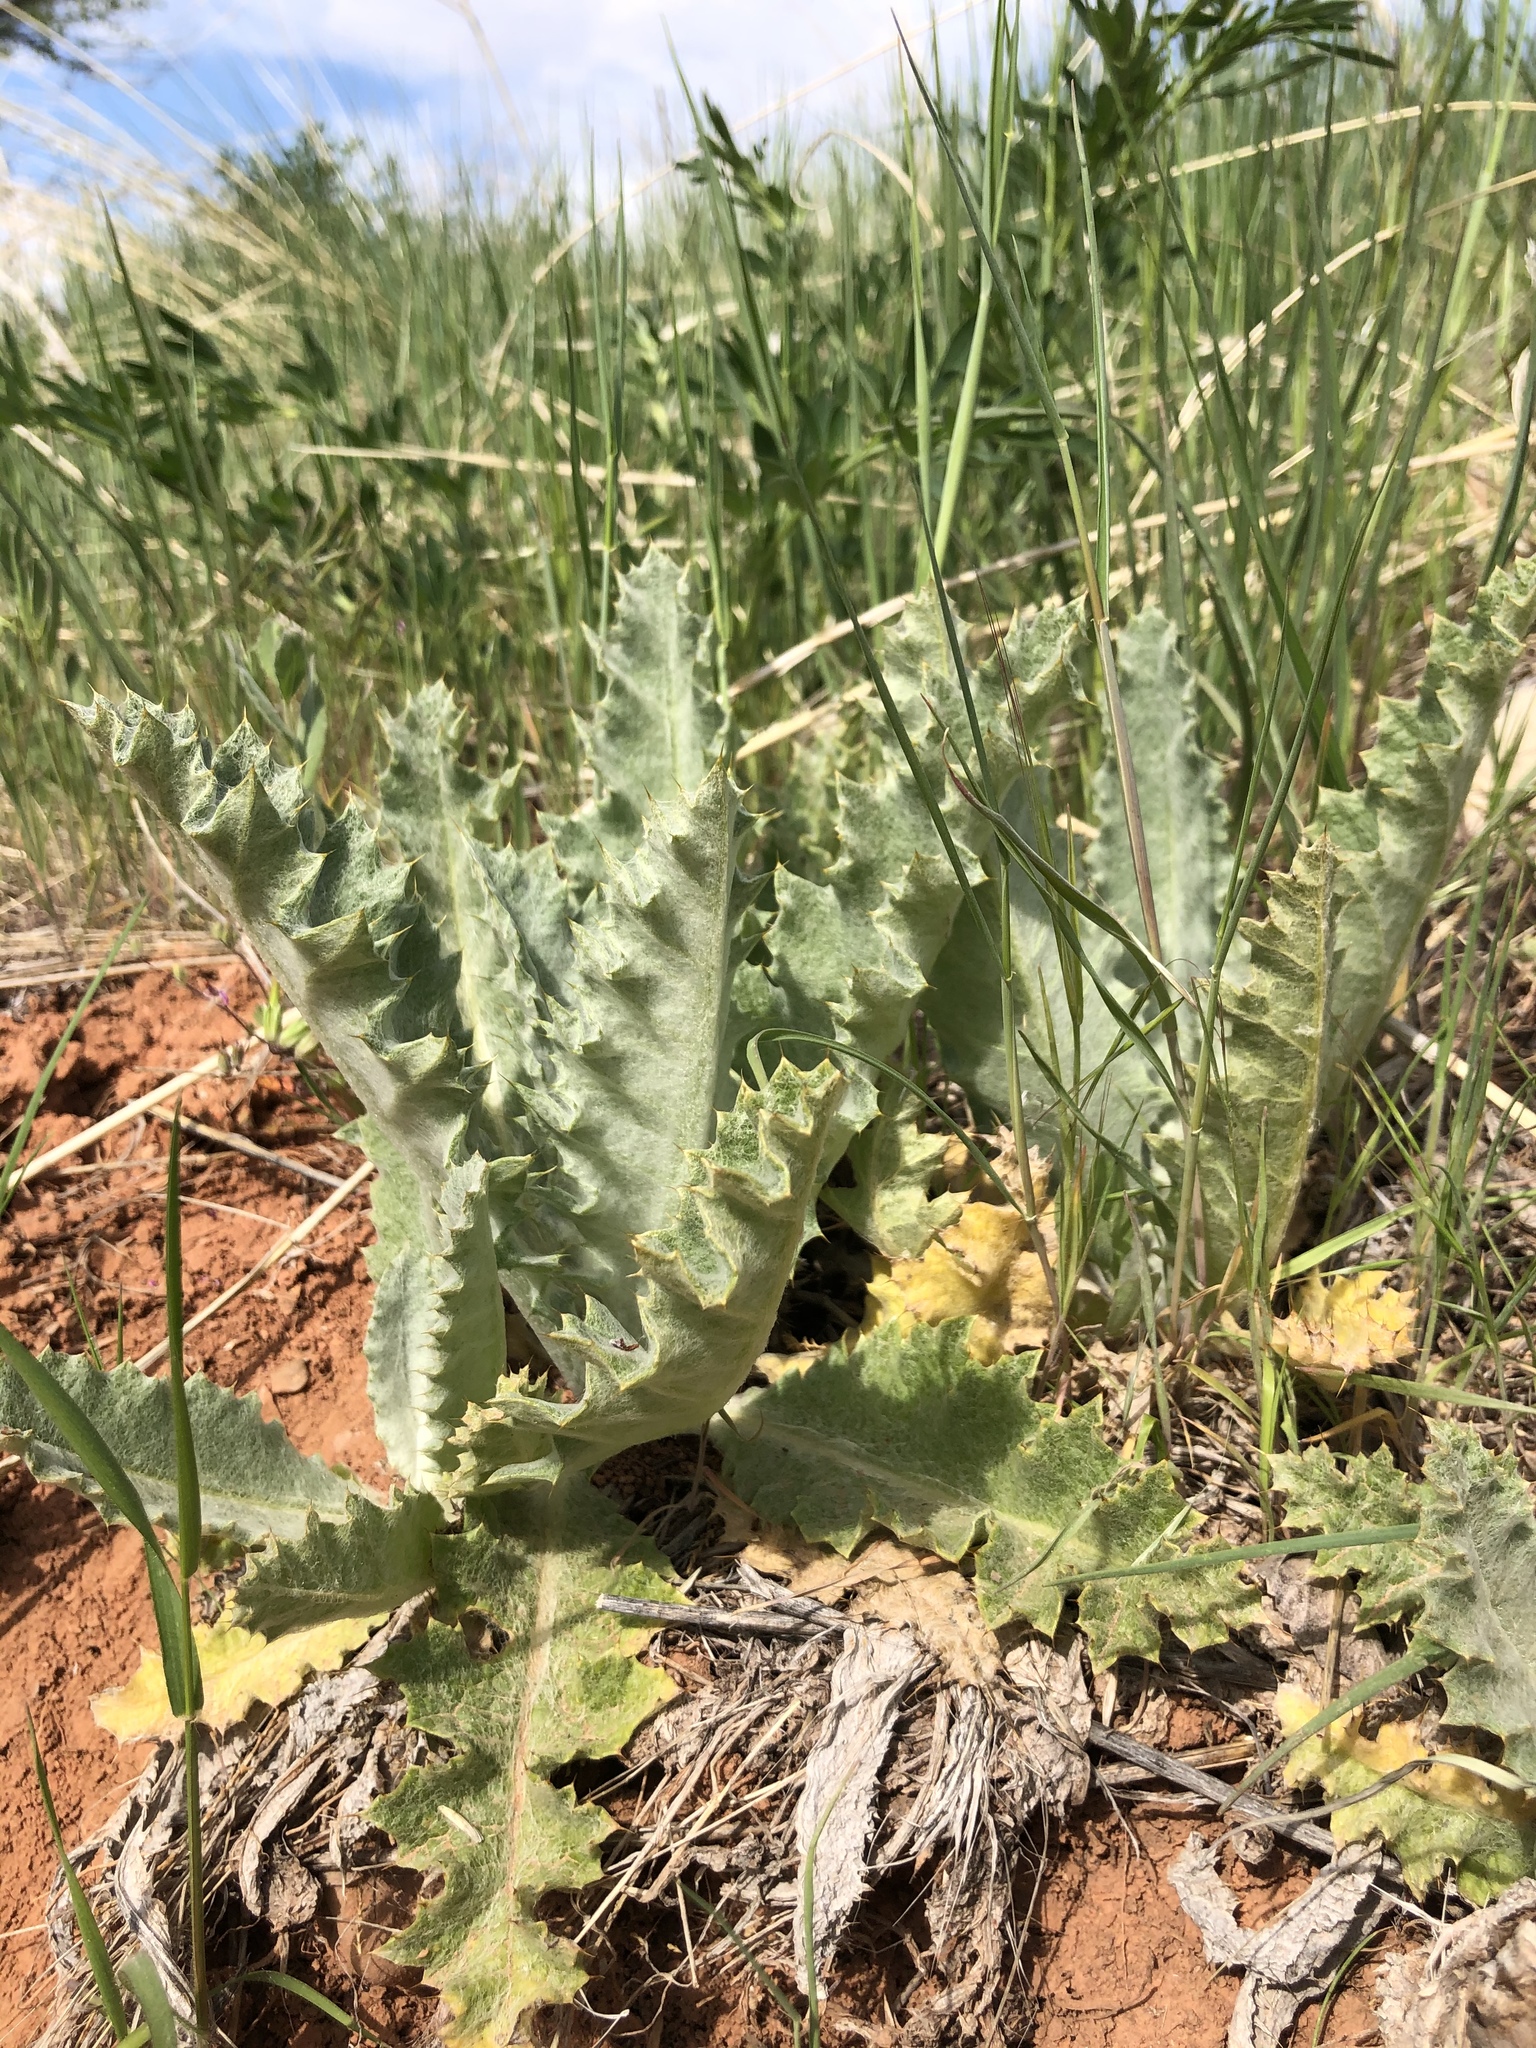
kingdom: Plantae
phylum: Tracheophyta
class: Magnoliopsida
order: Asterales
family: Asteraceae
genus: Onopordum
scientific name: Onopordum acanthium
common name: Scotch thistle
